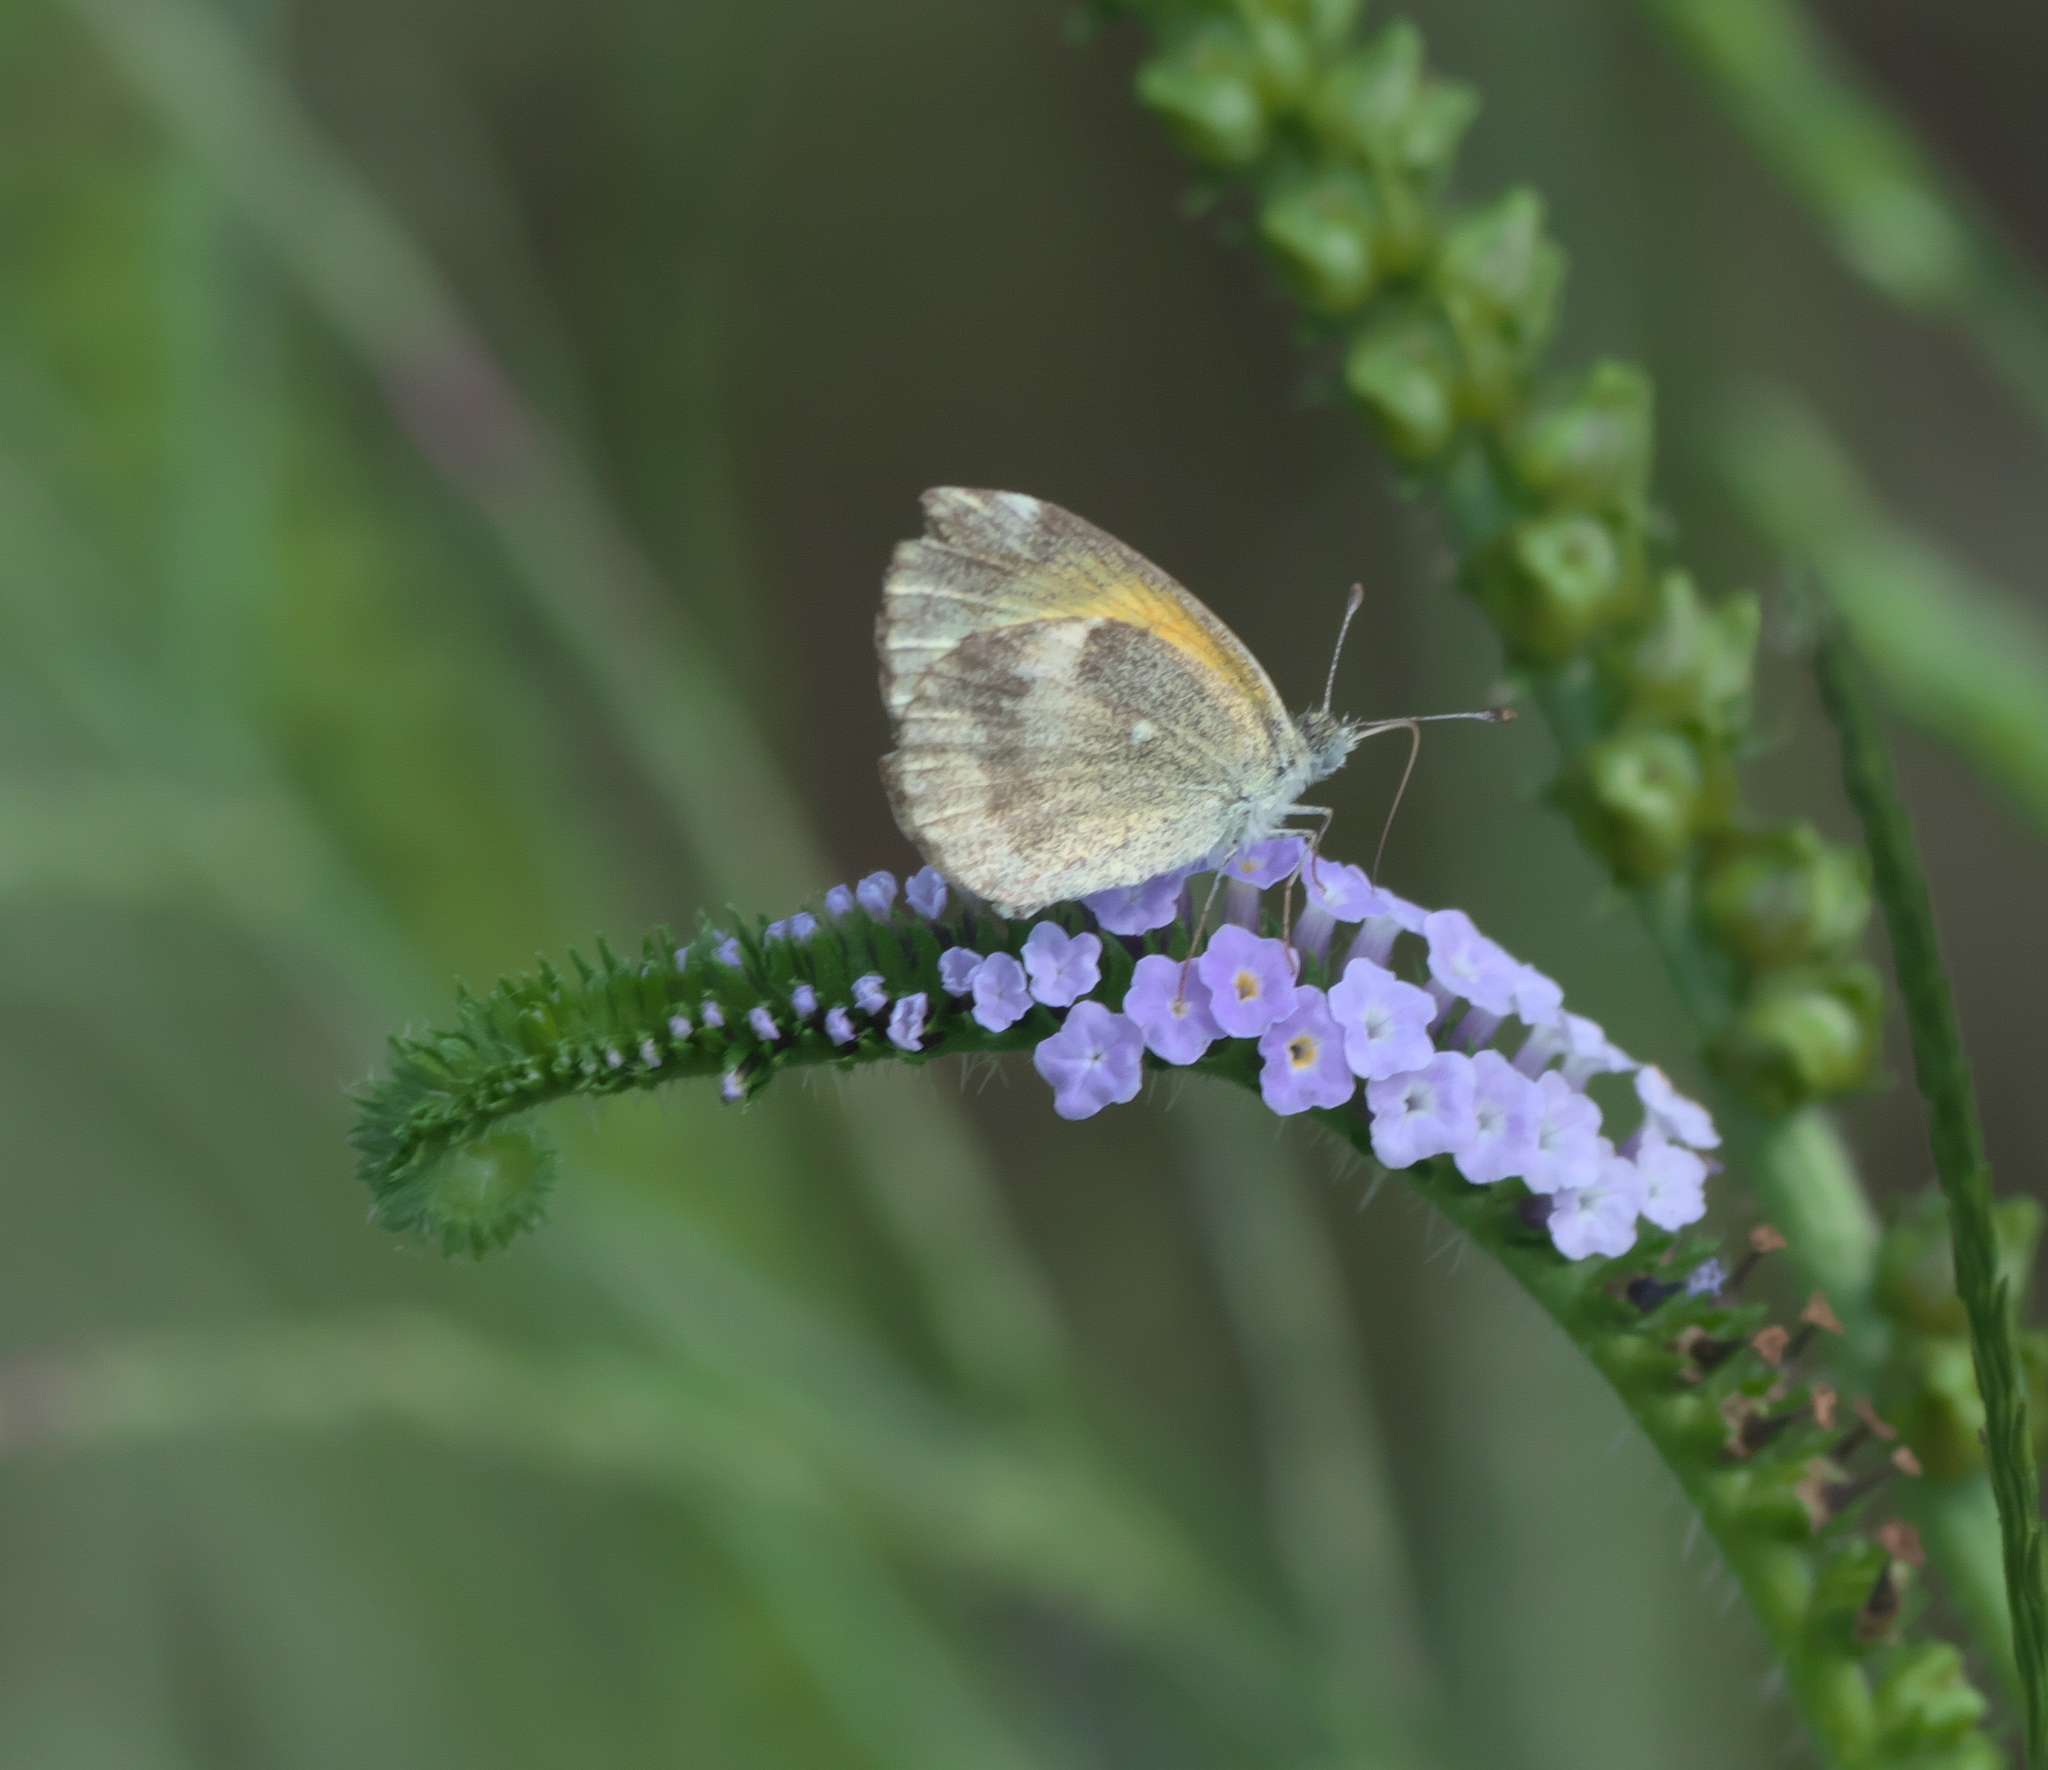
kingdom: Animalia
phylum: Arthropoda
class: Insecta
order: Lepidoptera
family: Pieridae
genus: Nathalis
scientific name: Nathalis iole
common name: Dainty sulphur
